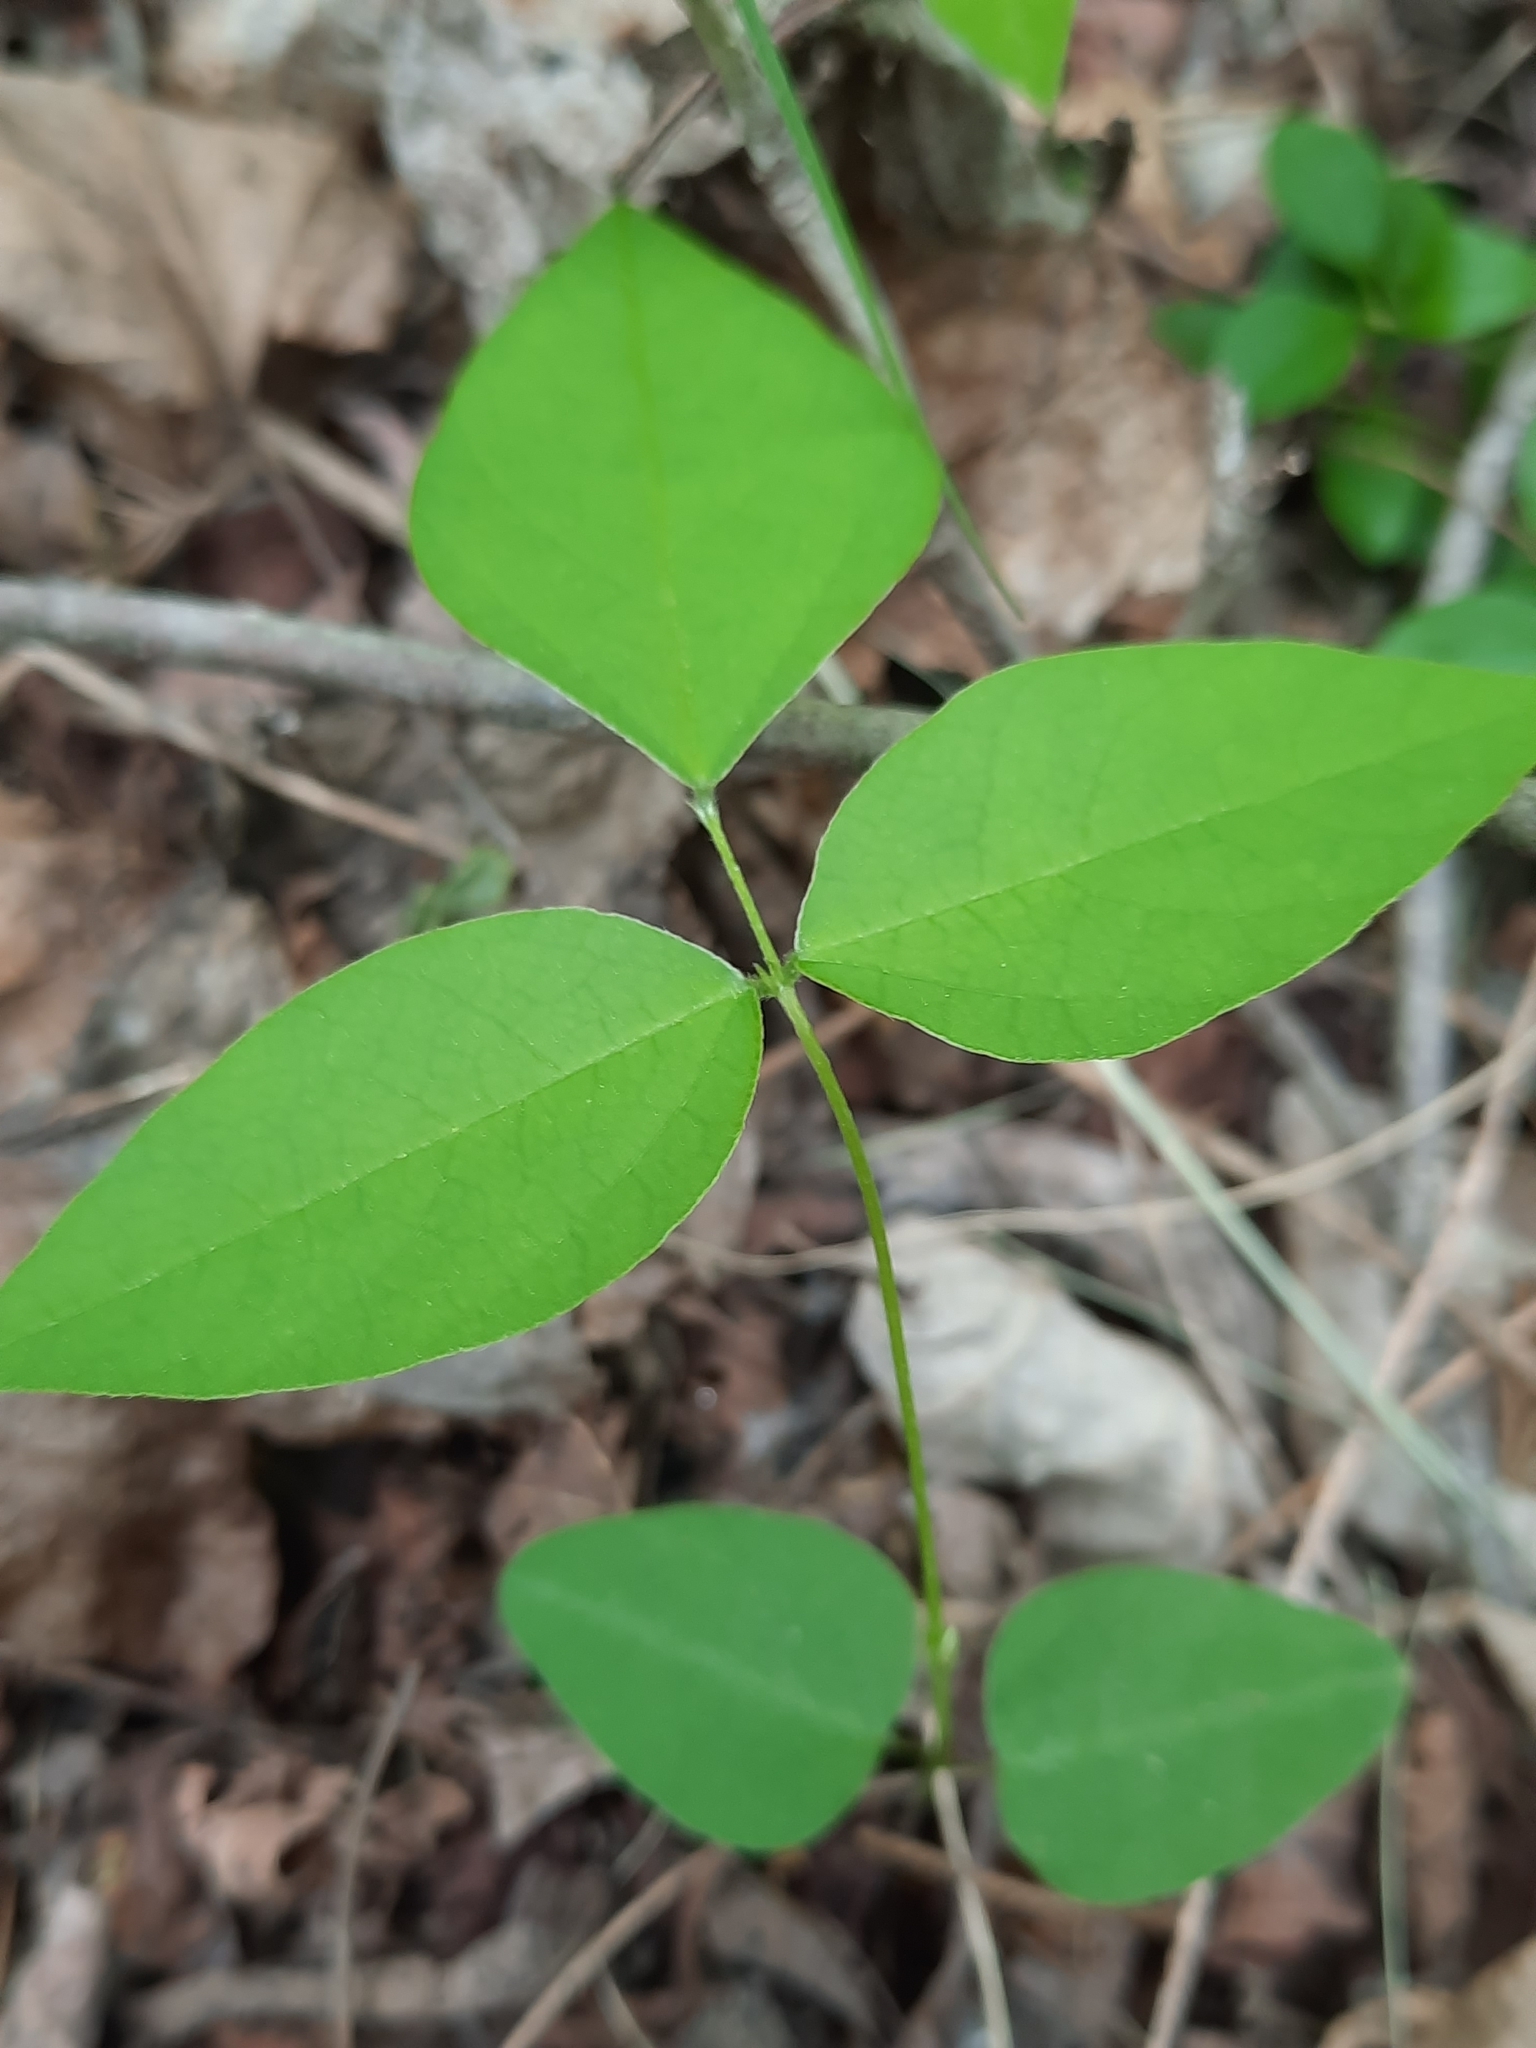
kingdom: Plantae
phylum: Tracheophyta
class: Magnoliopsida
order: Fabales
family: Fabaceae
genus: Amphicarpaea
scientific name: Amphicarpaea bracteata
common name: American hog peanut
